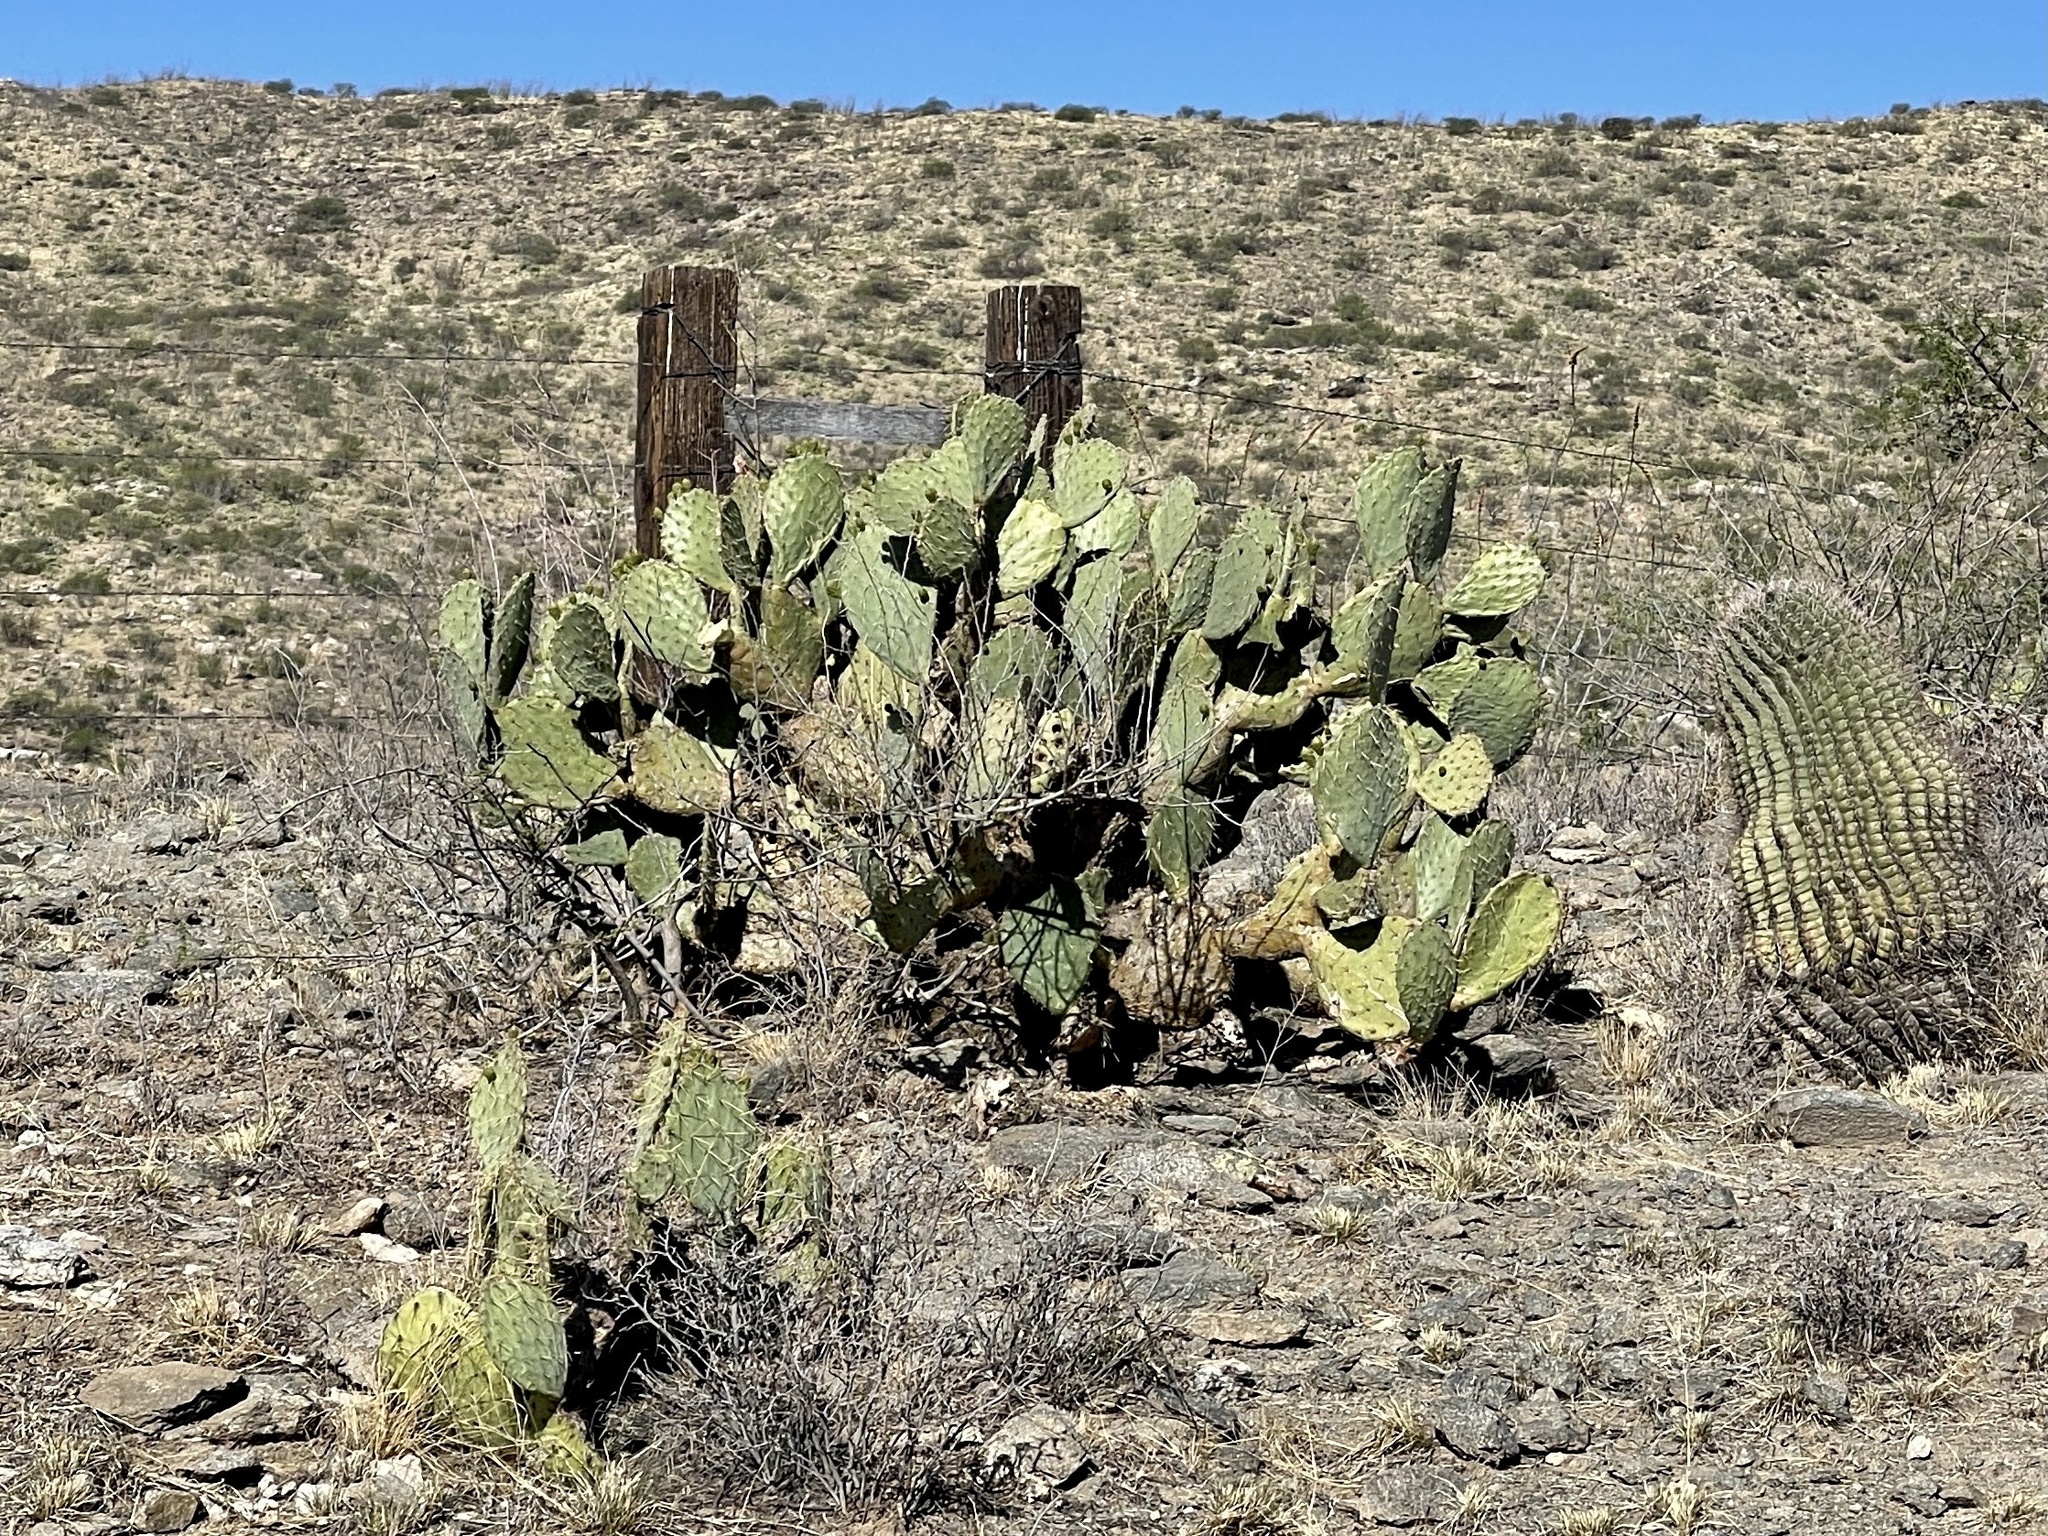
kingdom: Plantae
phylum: Tracheophyta
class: Magnoliopsida
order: Caryophyllales
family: Cactaceae
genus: Opuntia
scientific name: Opuntia engelmannii
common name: Cactus-apple
